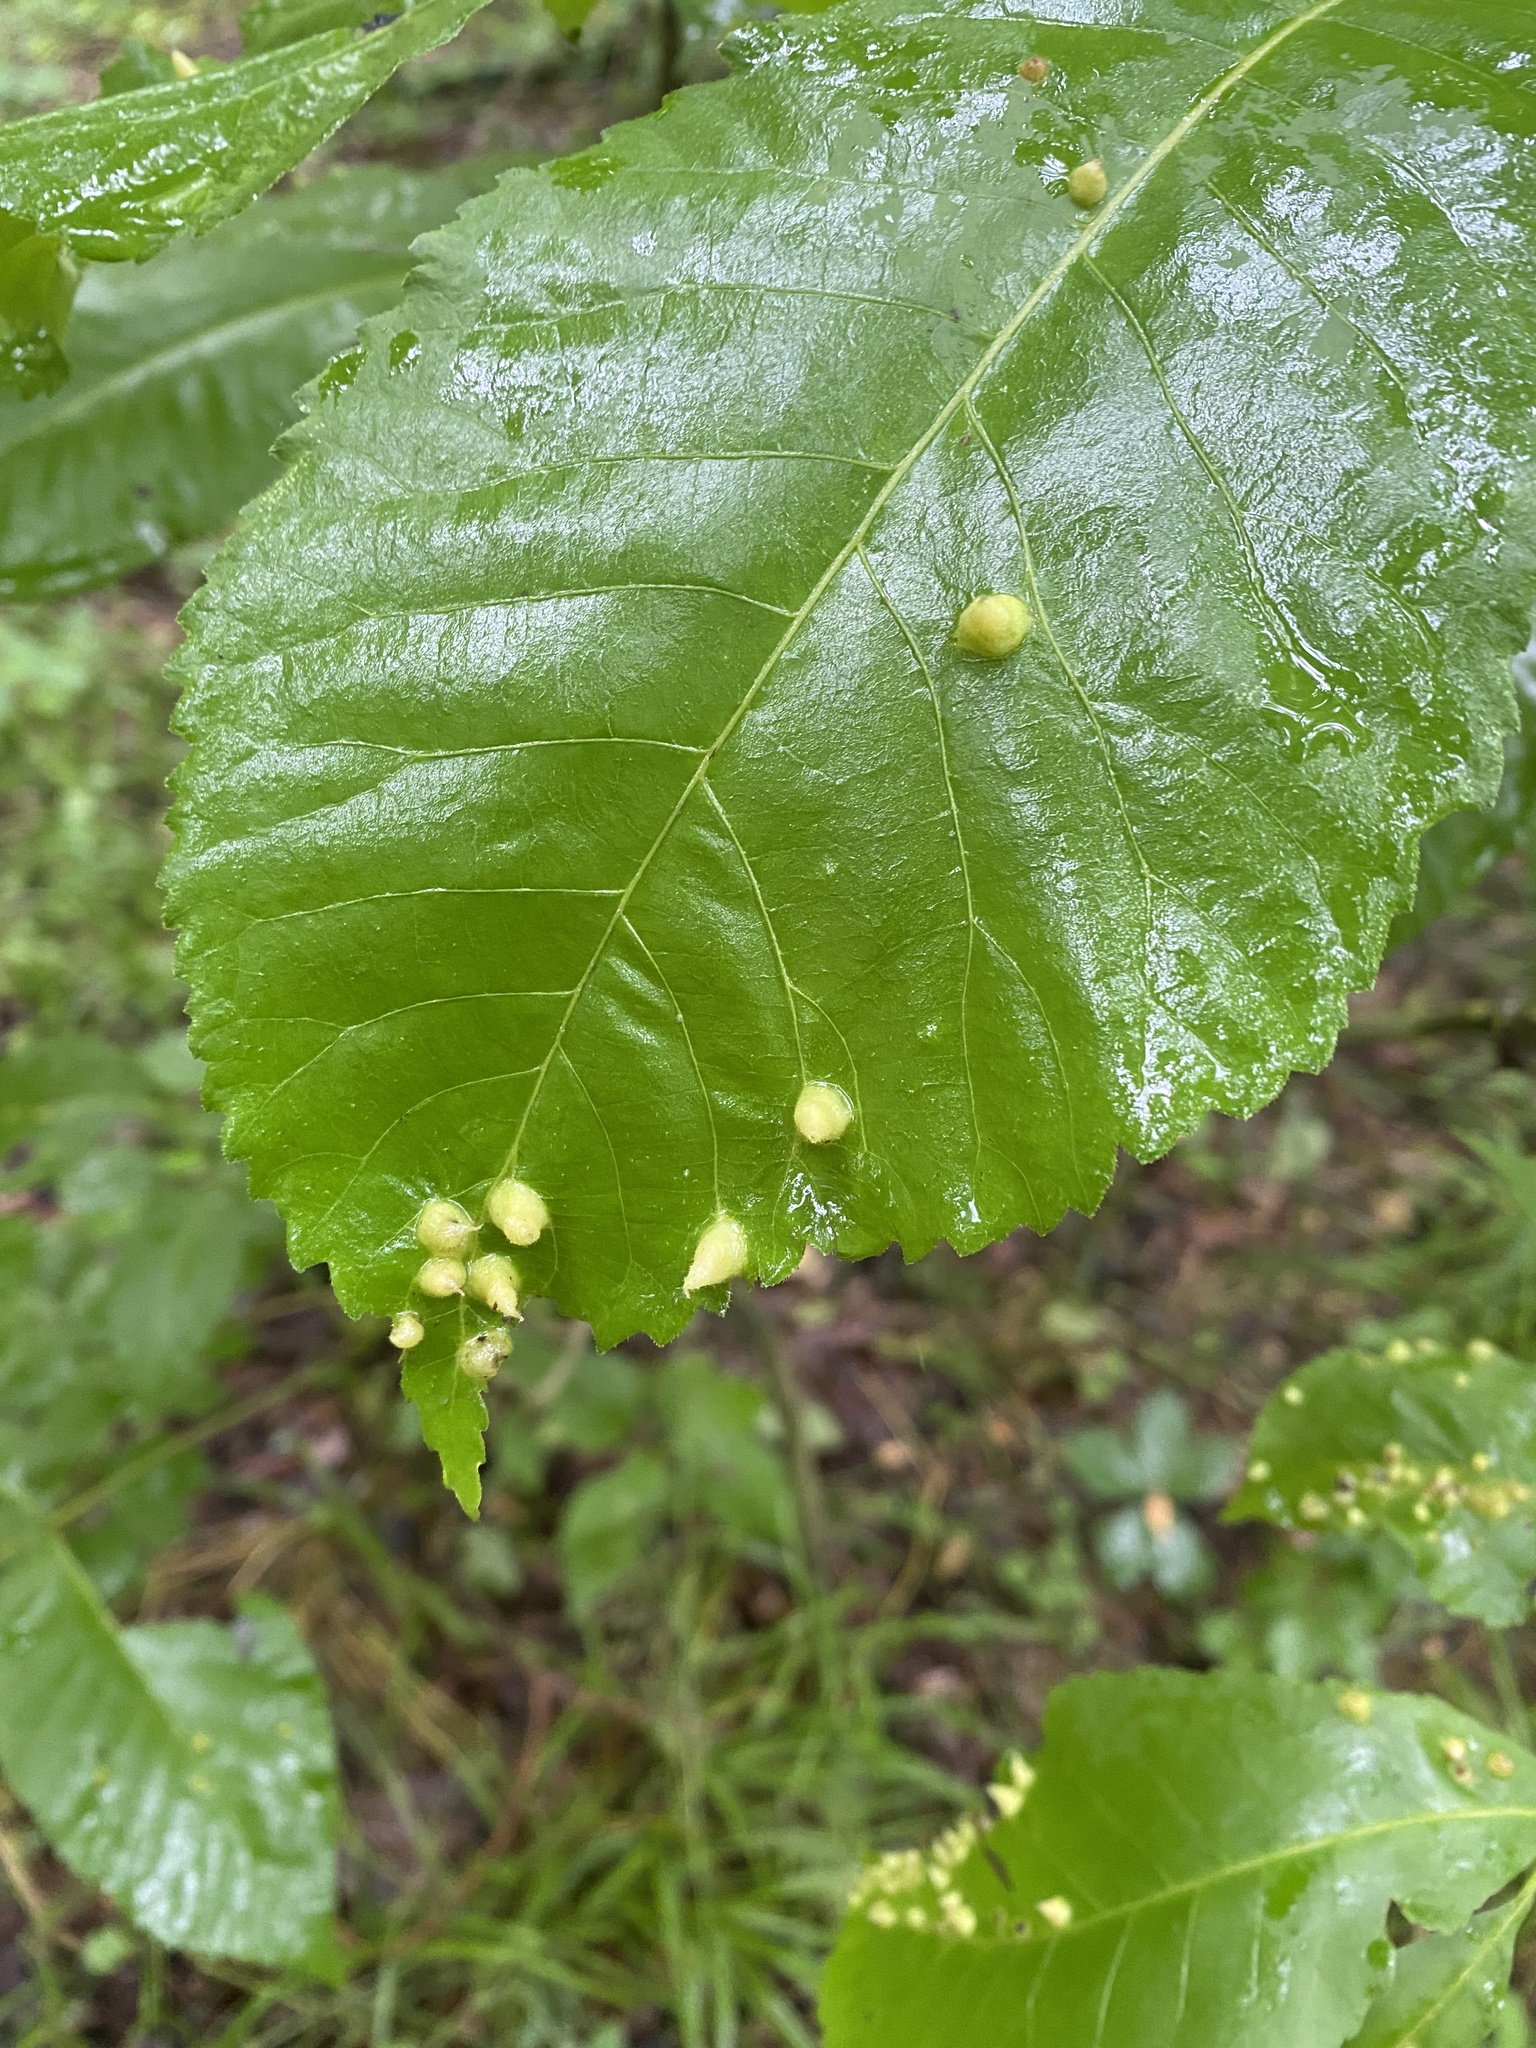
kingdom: Animalia
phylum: Arthropoda
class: Insecta
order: Hemiptera
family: Phylloxeridae
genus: Phylloxera
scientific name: Phylloxera caryaefallax
